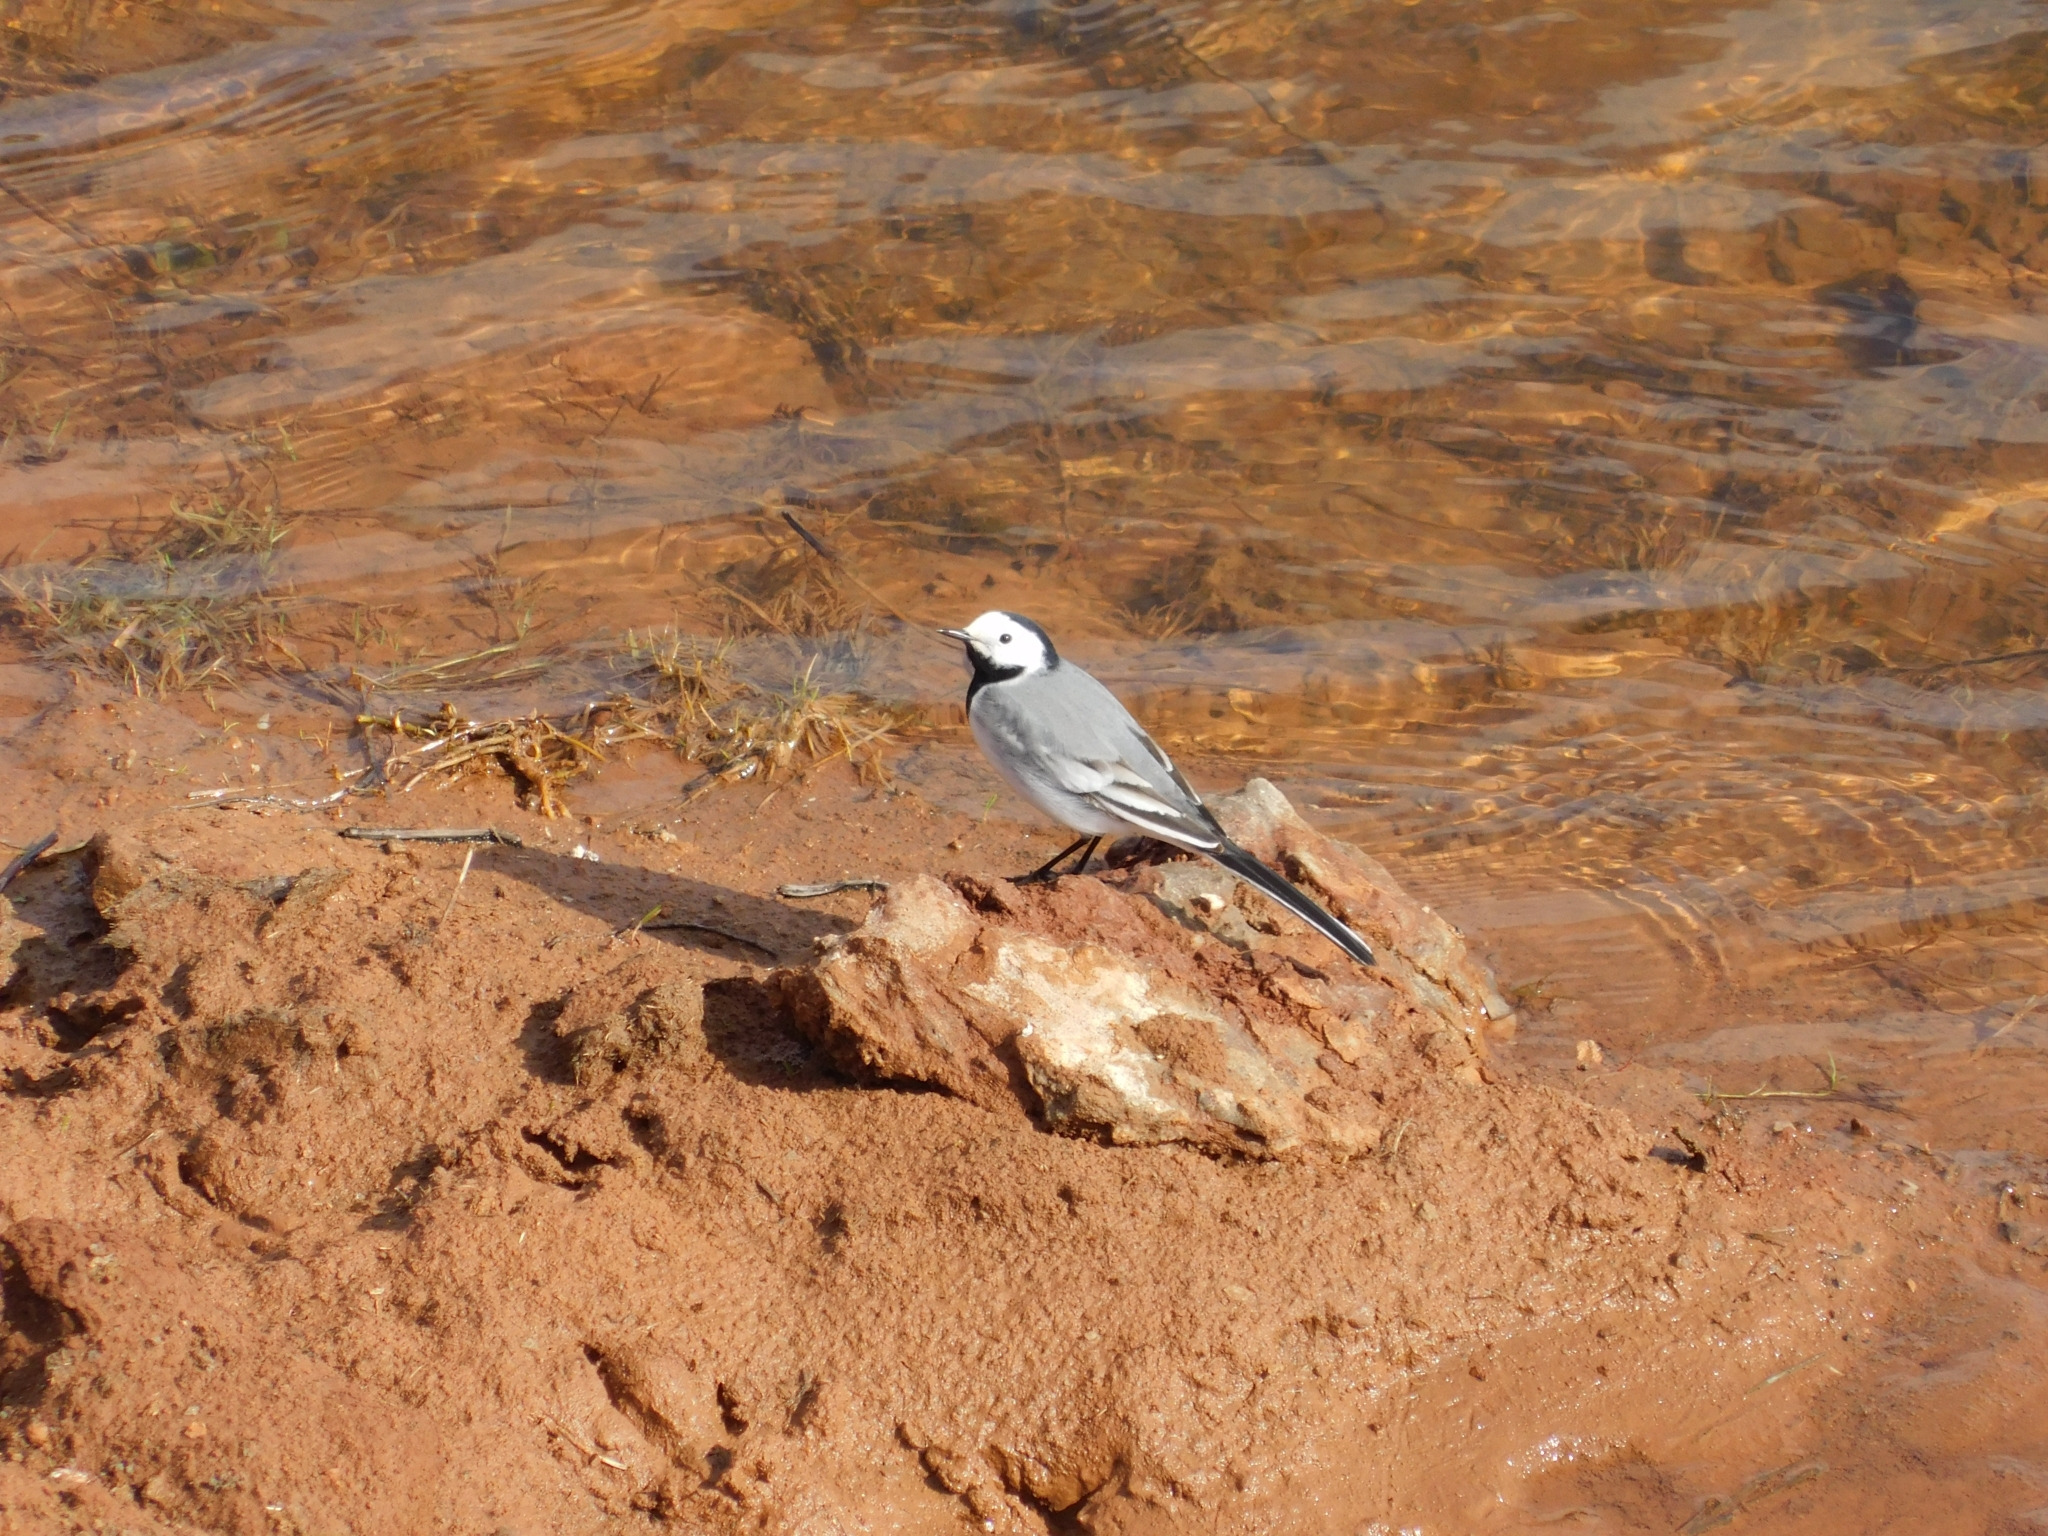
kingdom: Animalia
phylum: Chordata
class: Aves
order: Passeriformes
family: Motacillidae
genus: Motacilla
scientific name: Motacilla alba
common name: White wagtail
